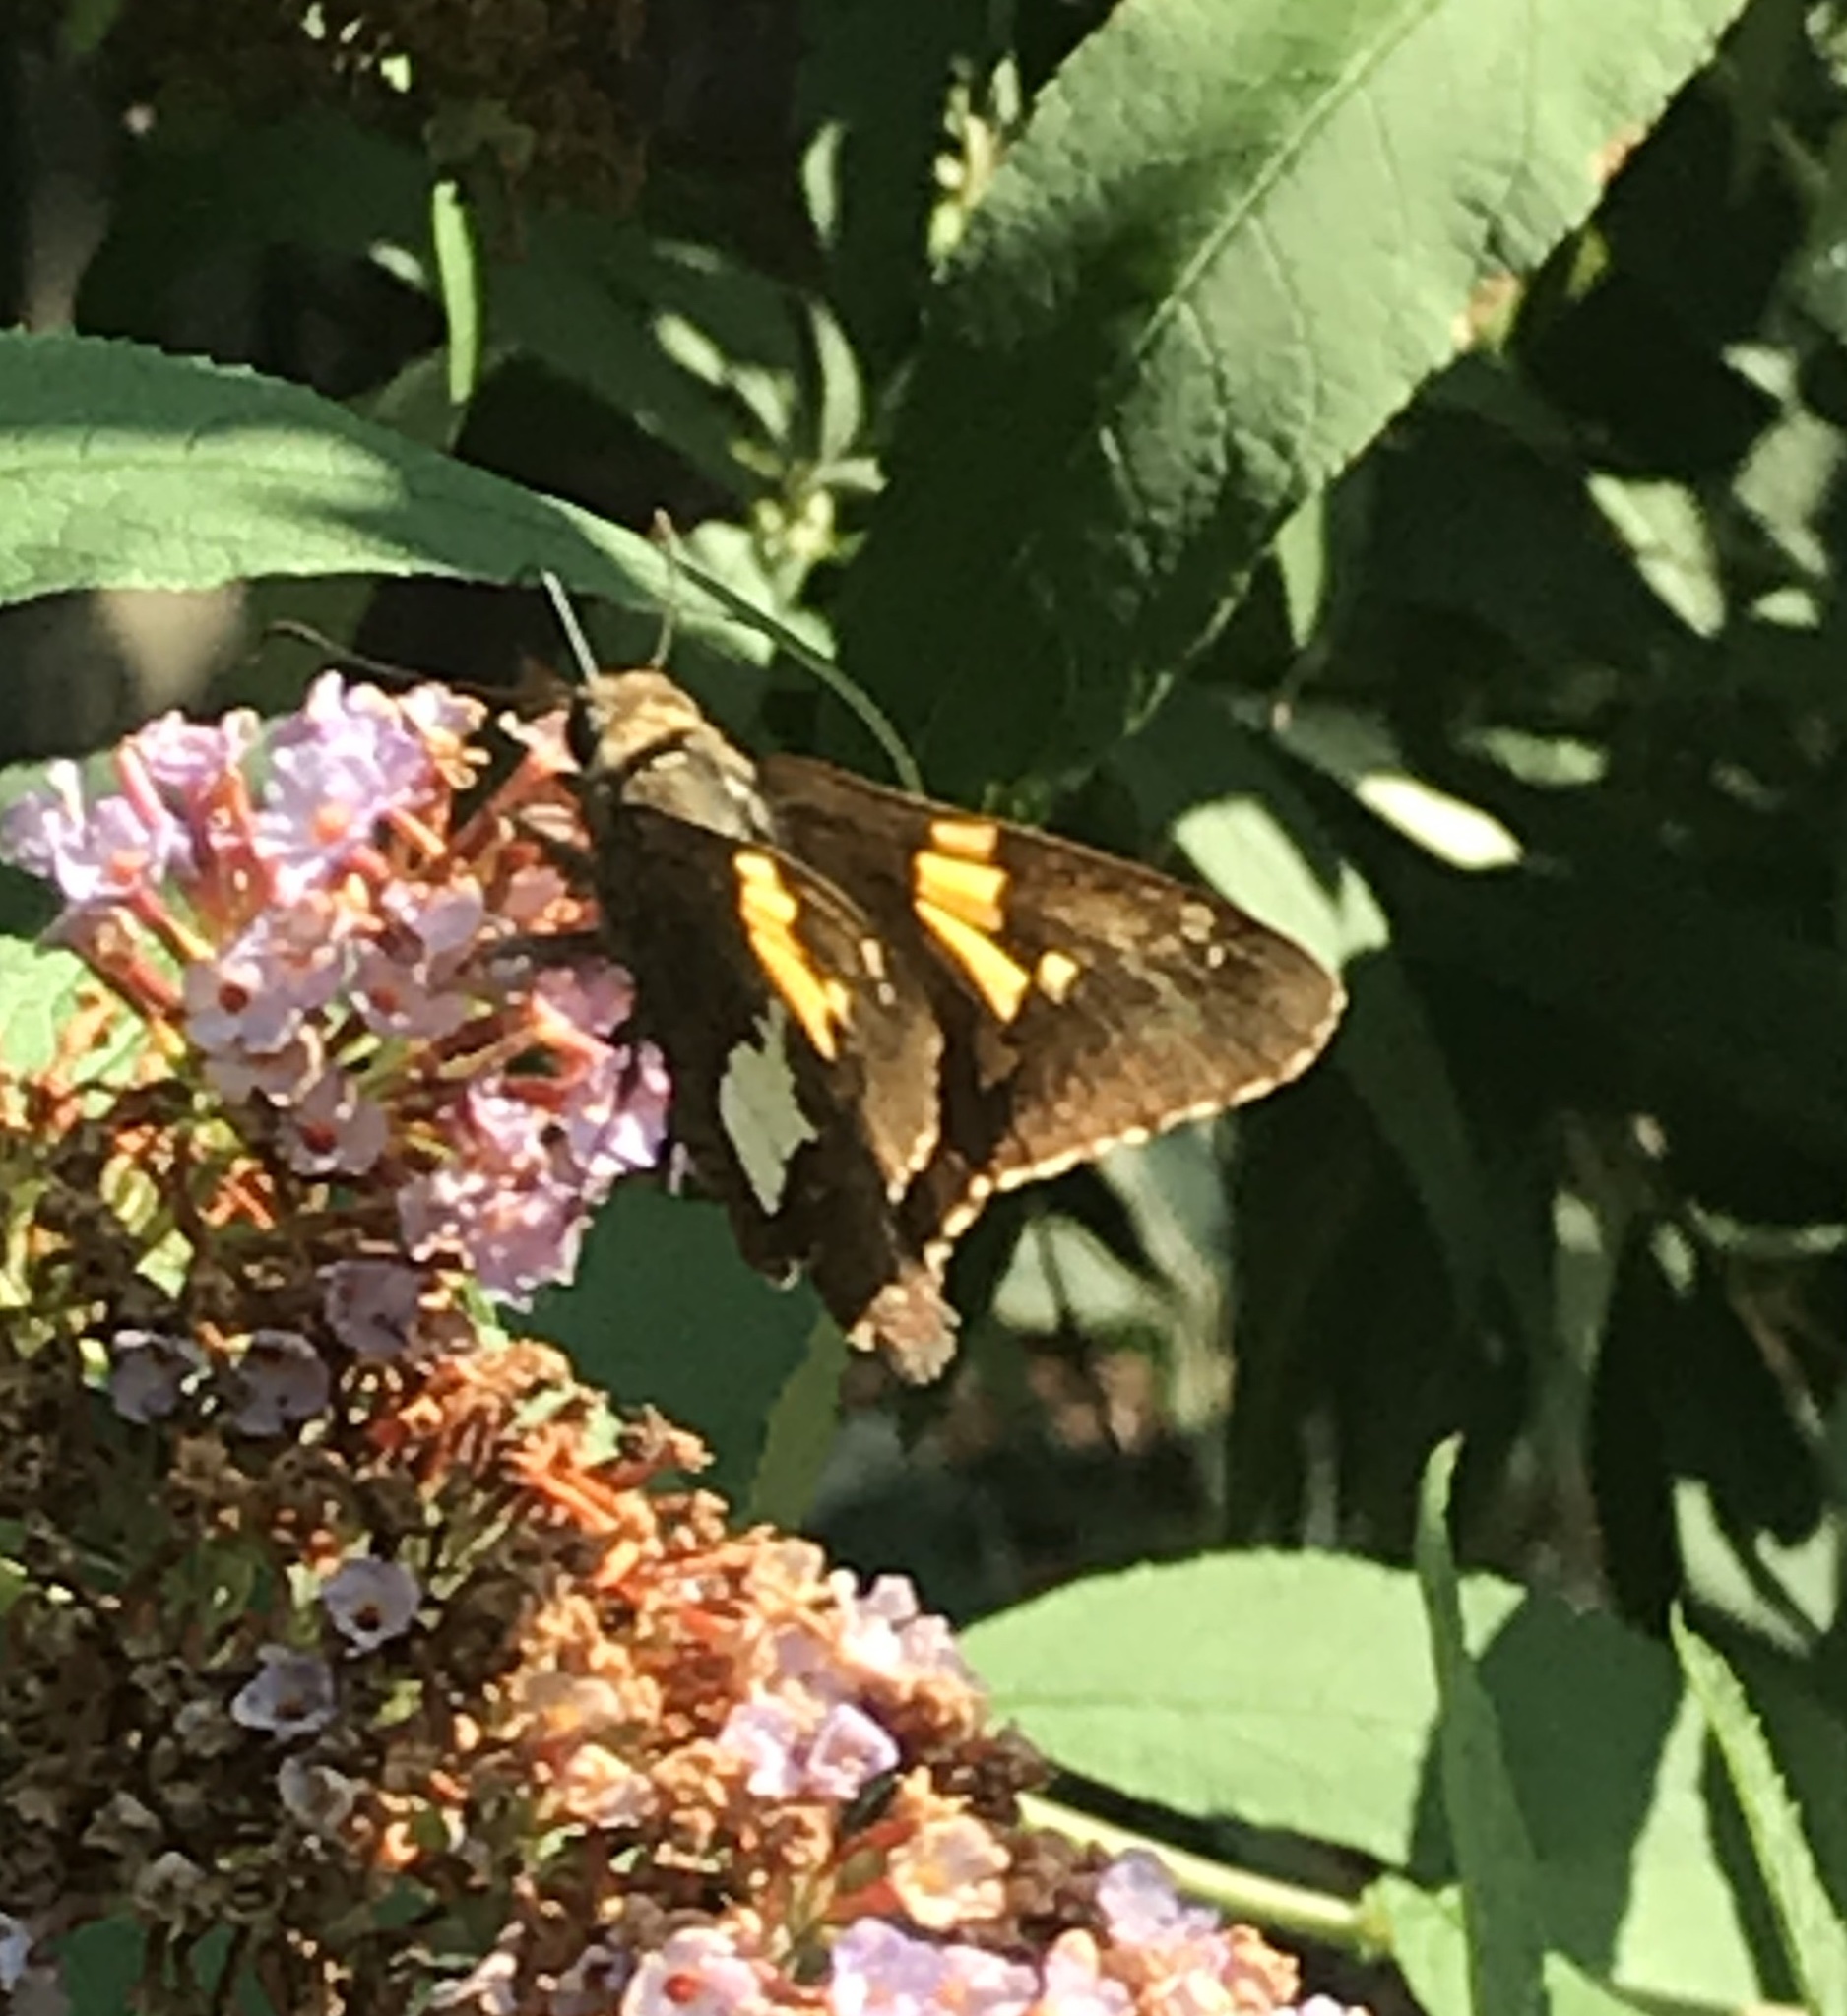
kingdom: Animalia
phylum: Arthropoda
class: Insecta
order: Lepidoptera
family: Hesperiidae
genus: Epargyreus
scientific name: Epargyreus clarus
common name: Silver-spotted skipper
